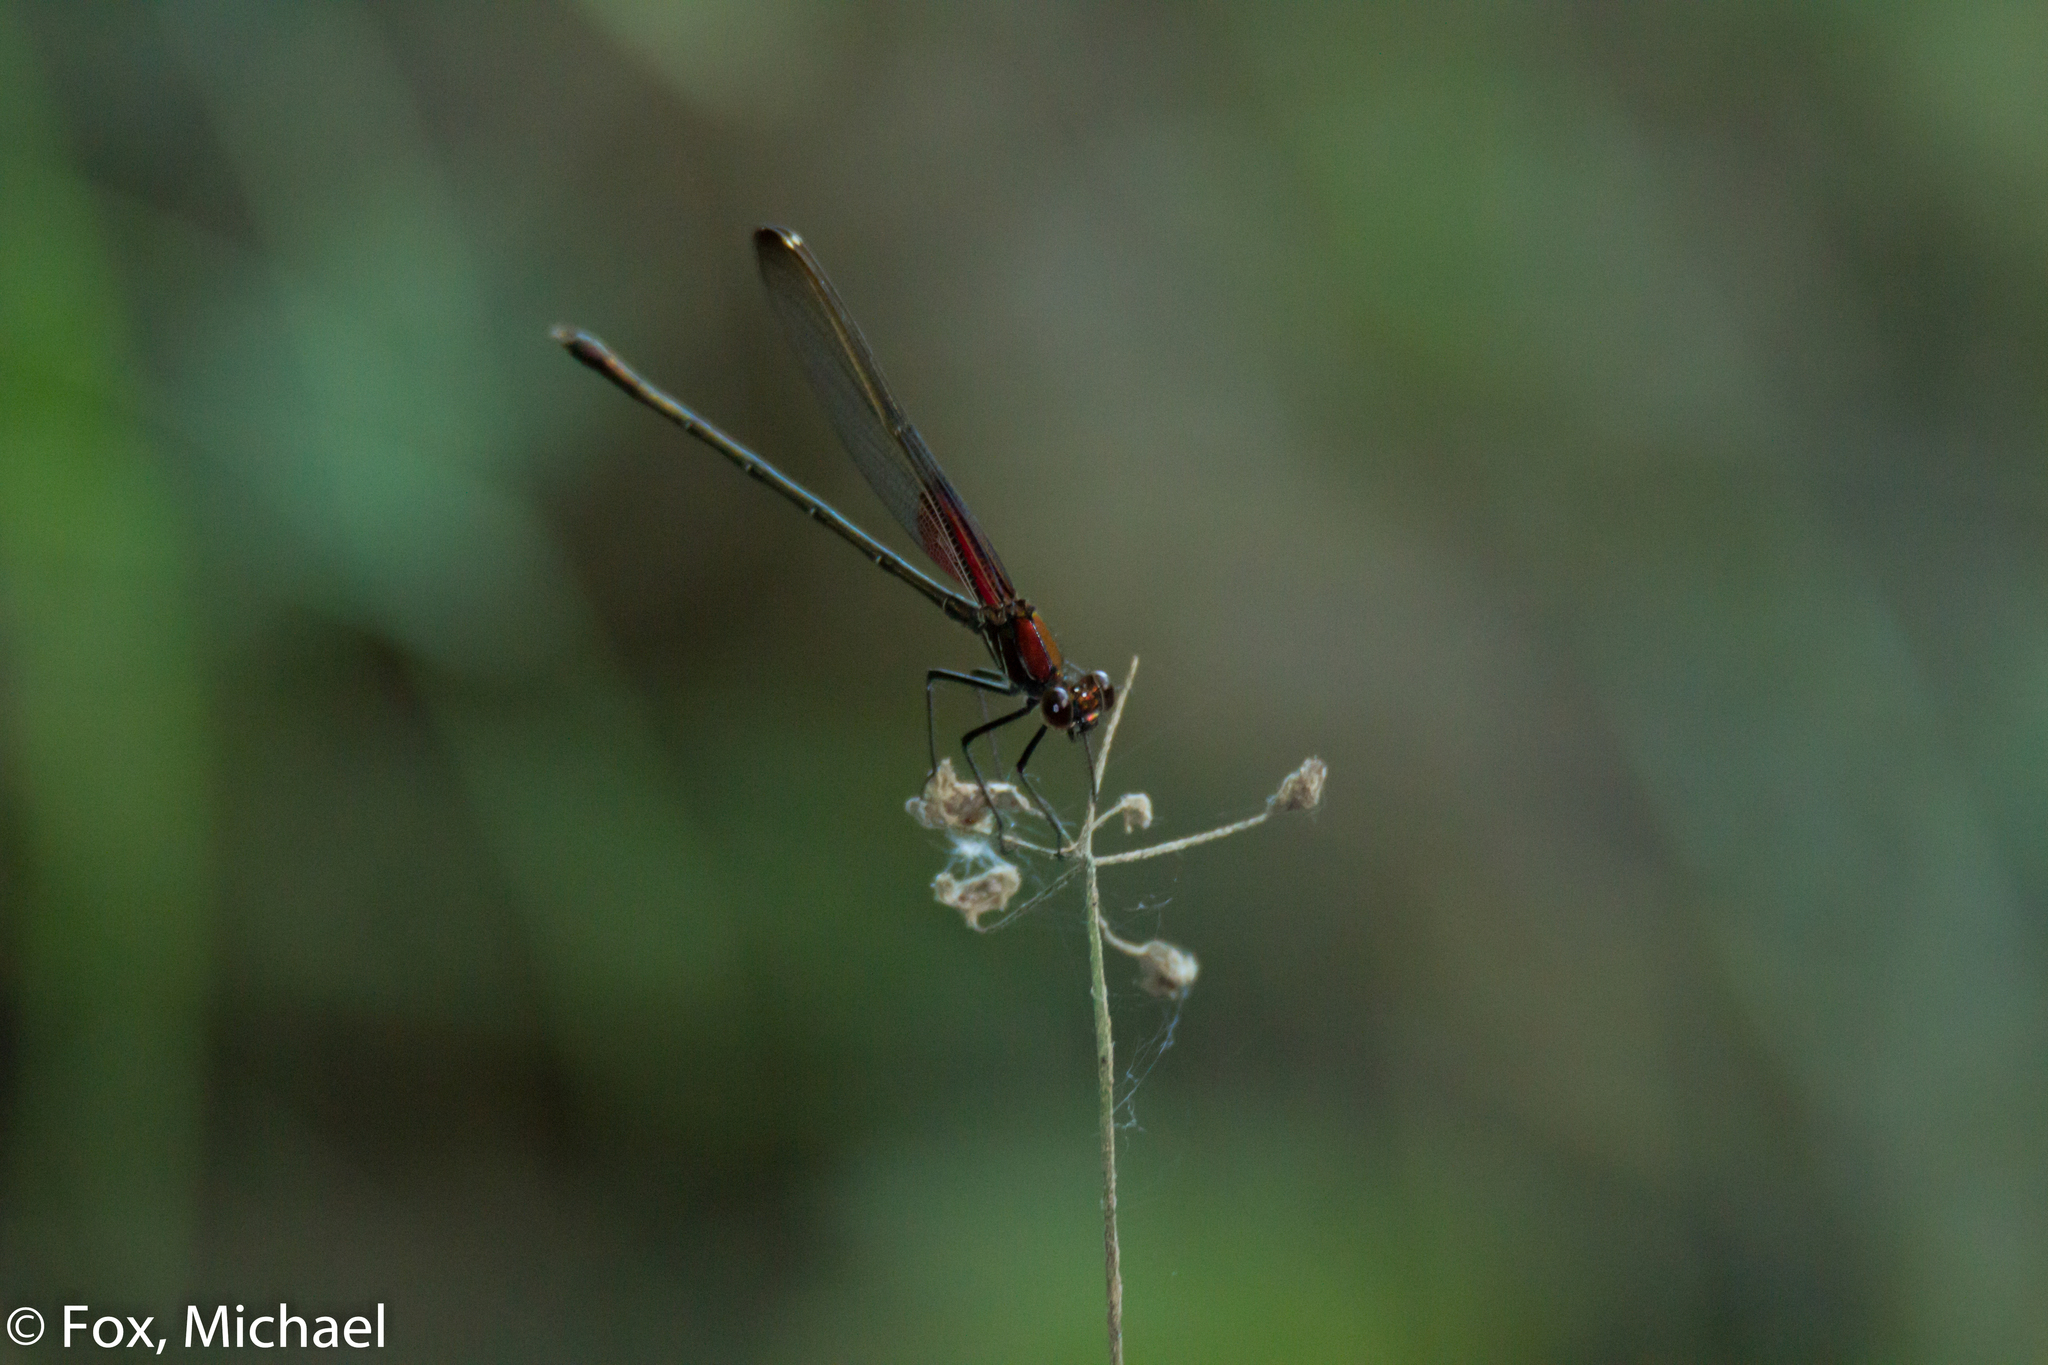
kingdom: Animalia
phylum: Arthropoda
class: Insecta
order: Odonata
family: Calopterygidae
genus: Hetaerina
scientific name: Hetaerina americana
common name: American rubyspot
